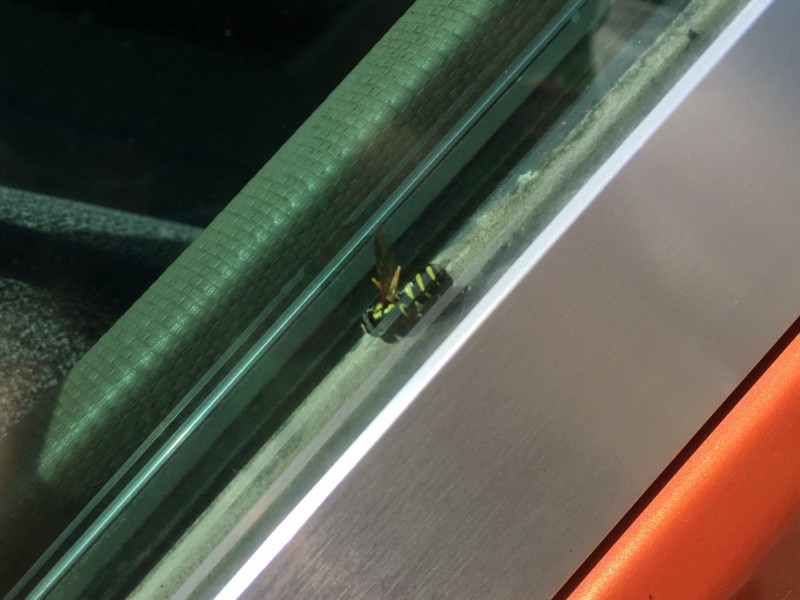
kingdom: Animalia
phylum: Arthropoda
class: Insecta
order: Diptera
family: Syrphidae
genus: Xanthogramma
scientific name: Xanthogramma
